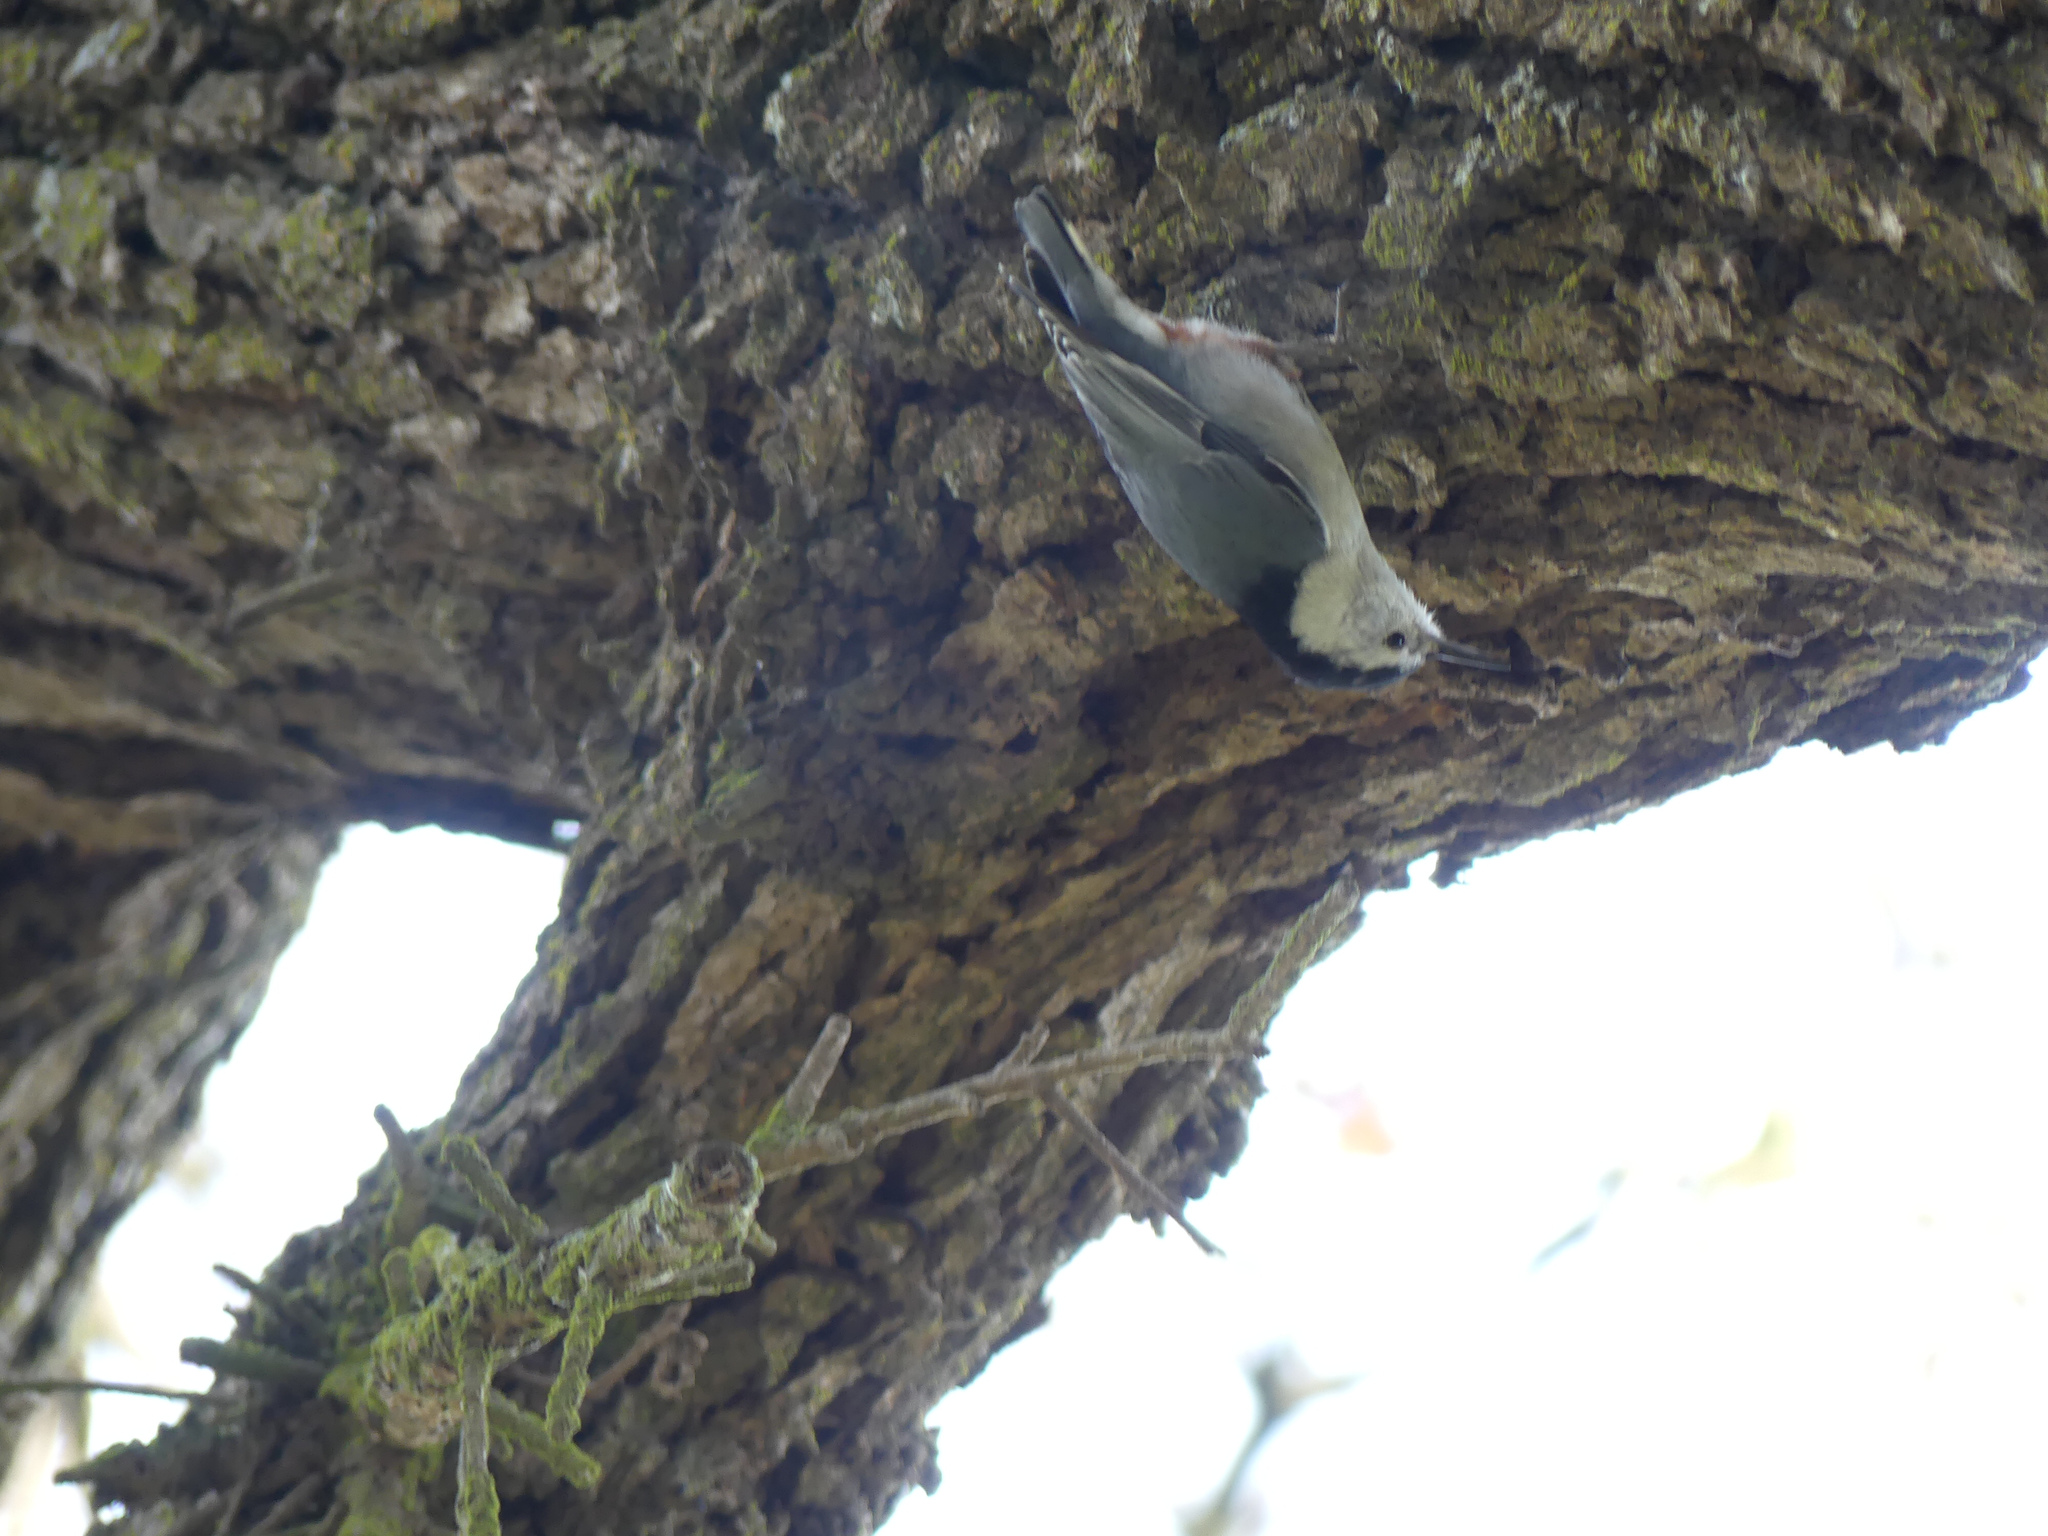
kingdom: Animalia
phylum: Chordata
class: Aves
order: Passeriformes
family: Sittidae
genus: Sitta
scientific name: Sitta carolinensis
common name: White-breasted nuthatch
